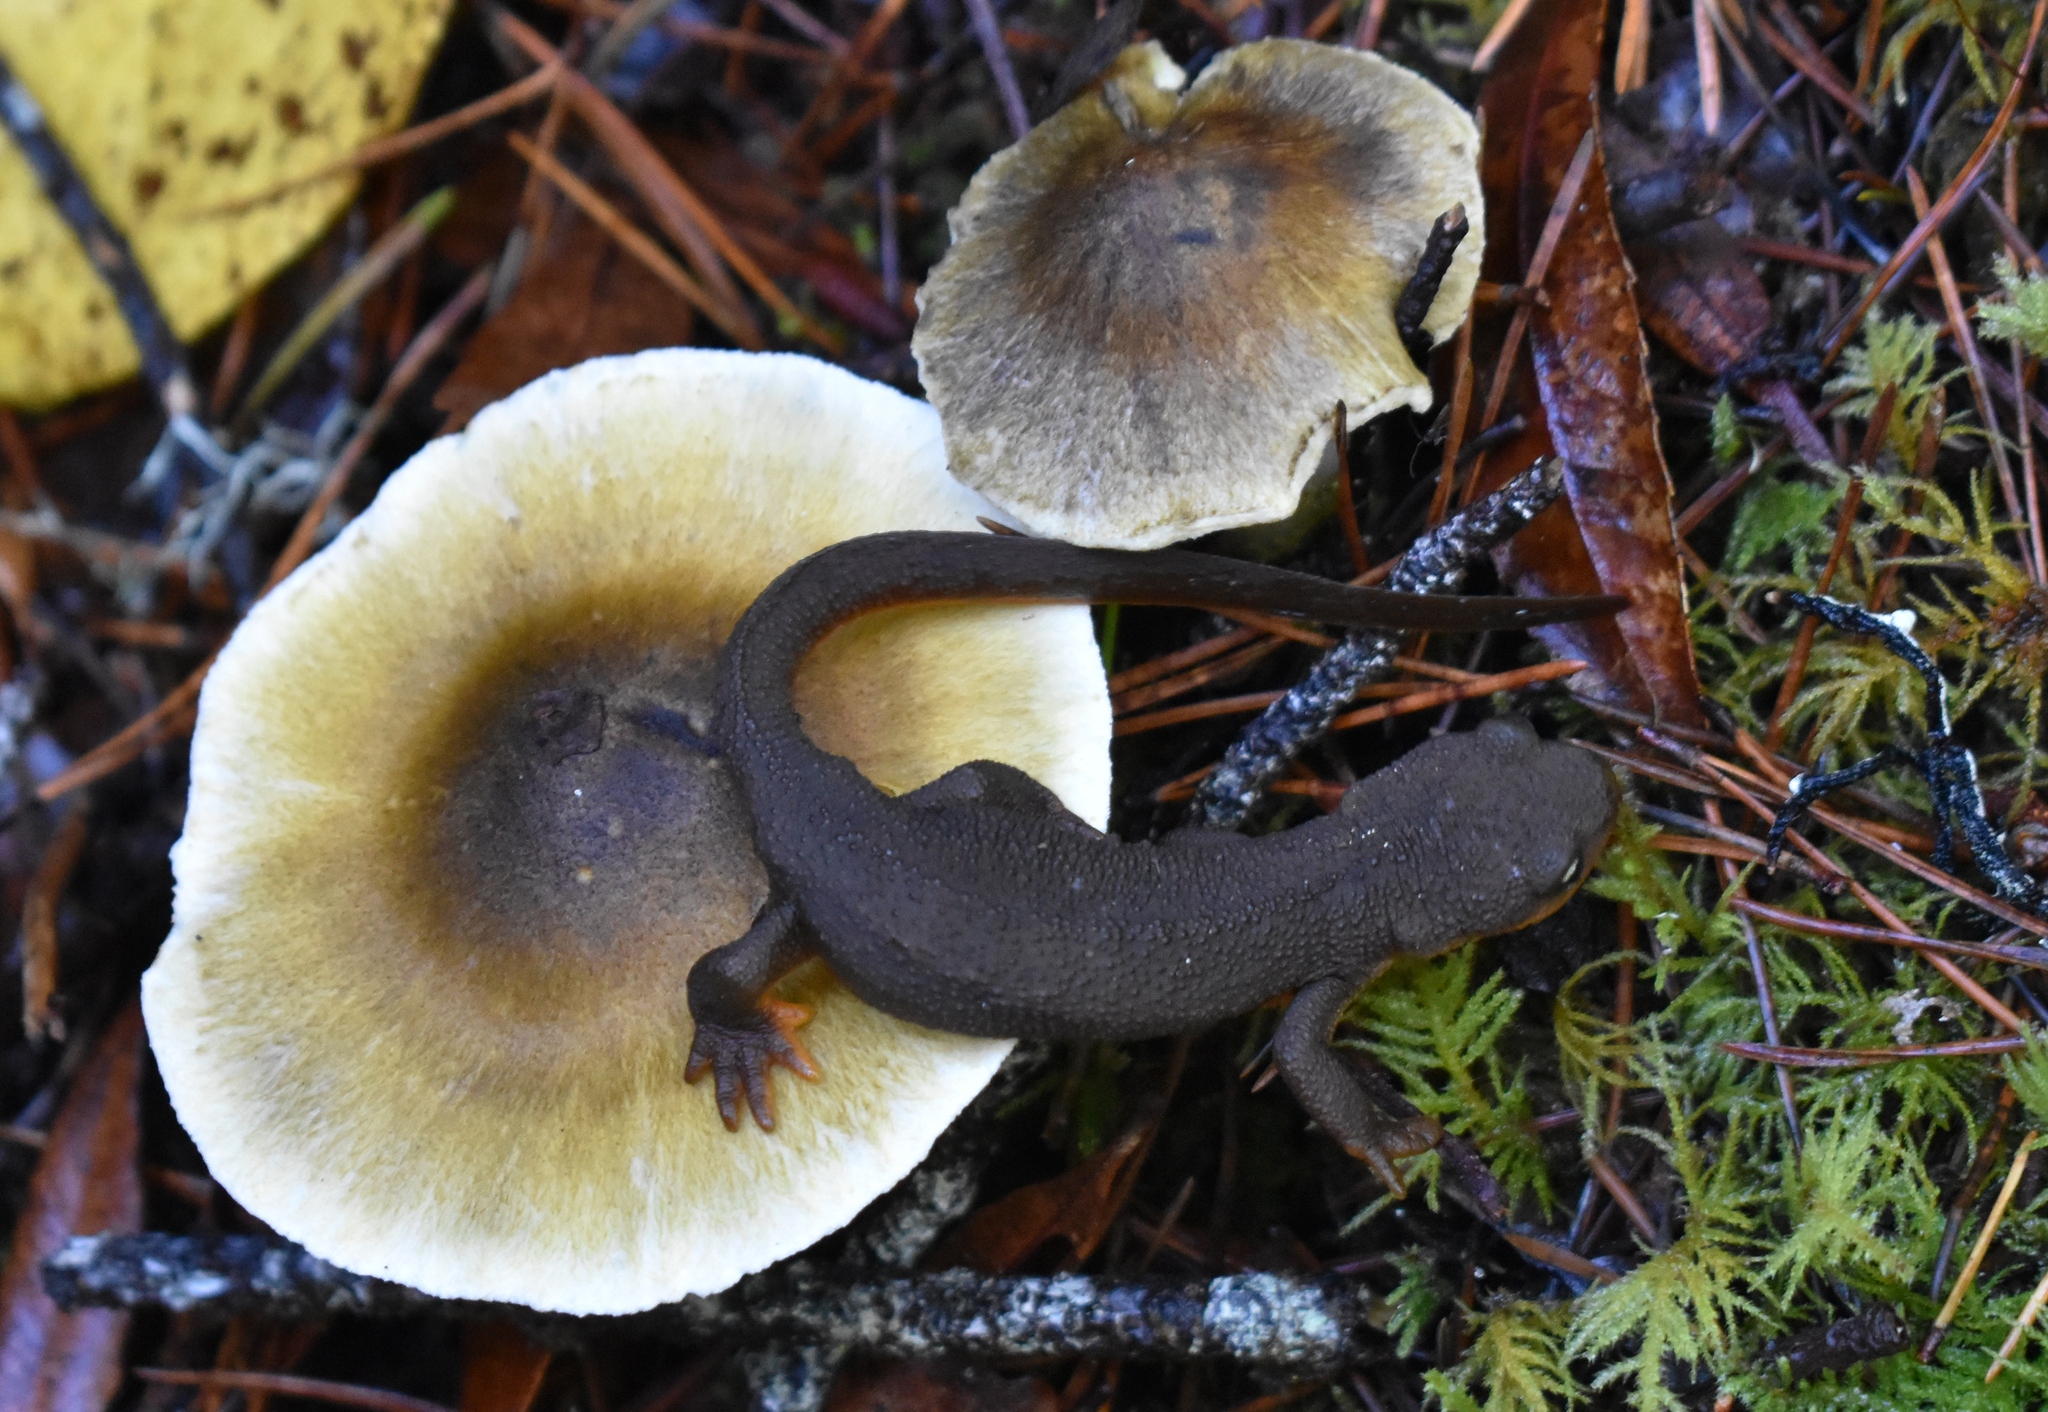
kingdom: Animalia
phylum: Chordata
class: Amphibia
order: Caudata
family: Salamandridae
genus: Taricha
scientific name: Taricha granulosa
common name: Roughskin newt
